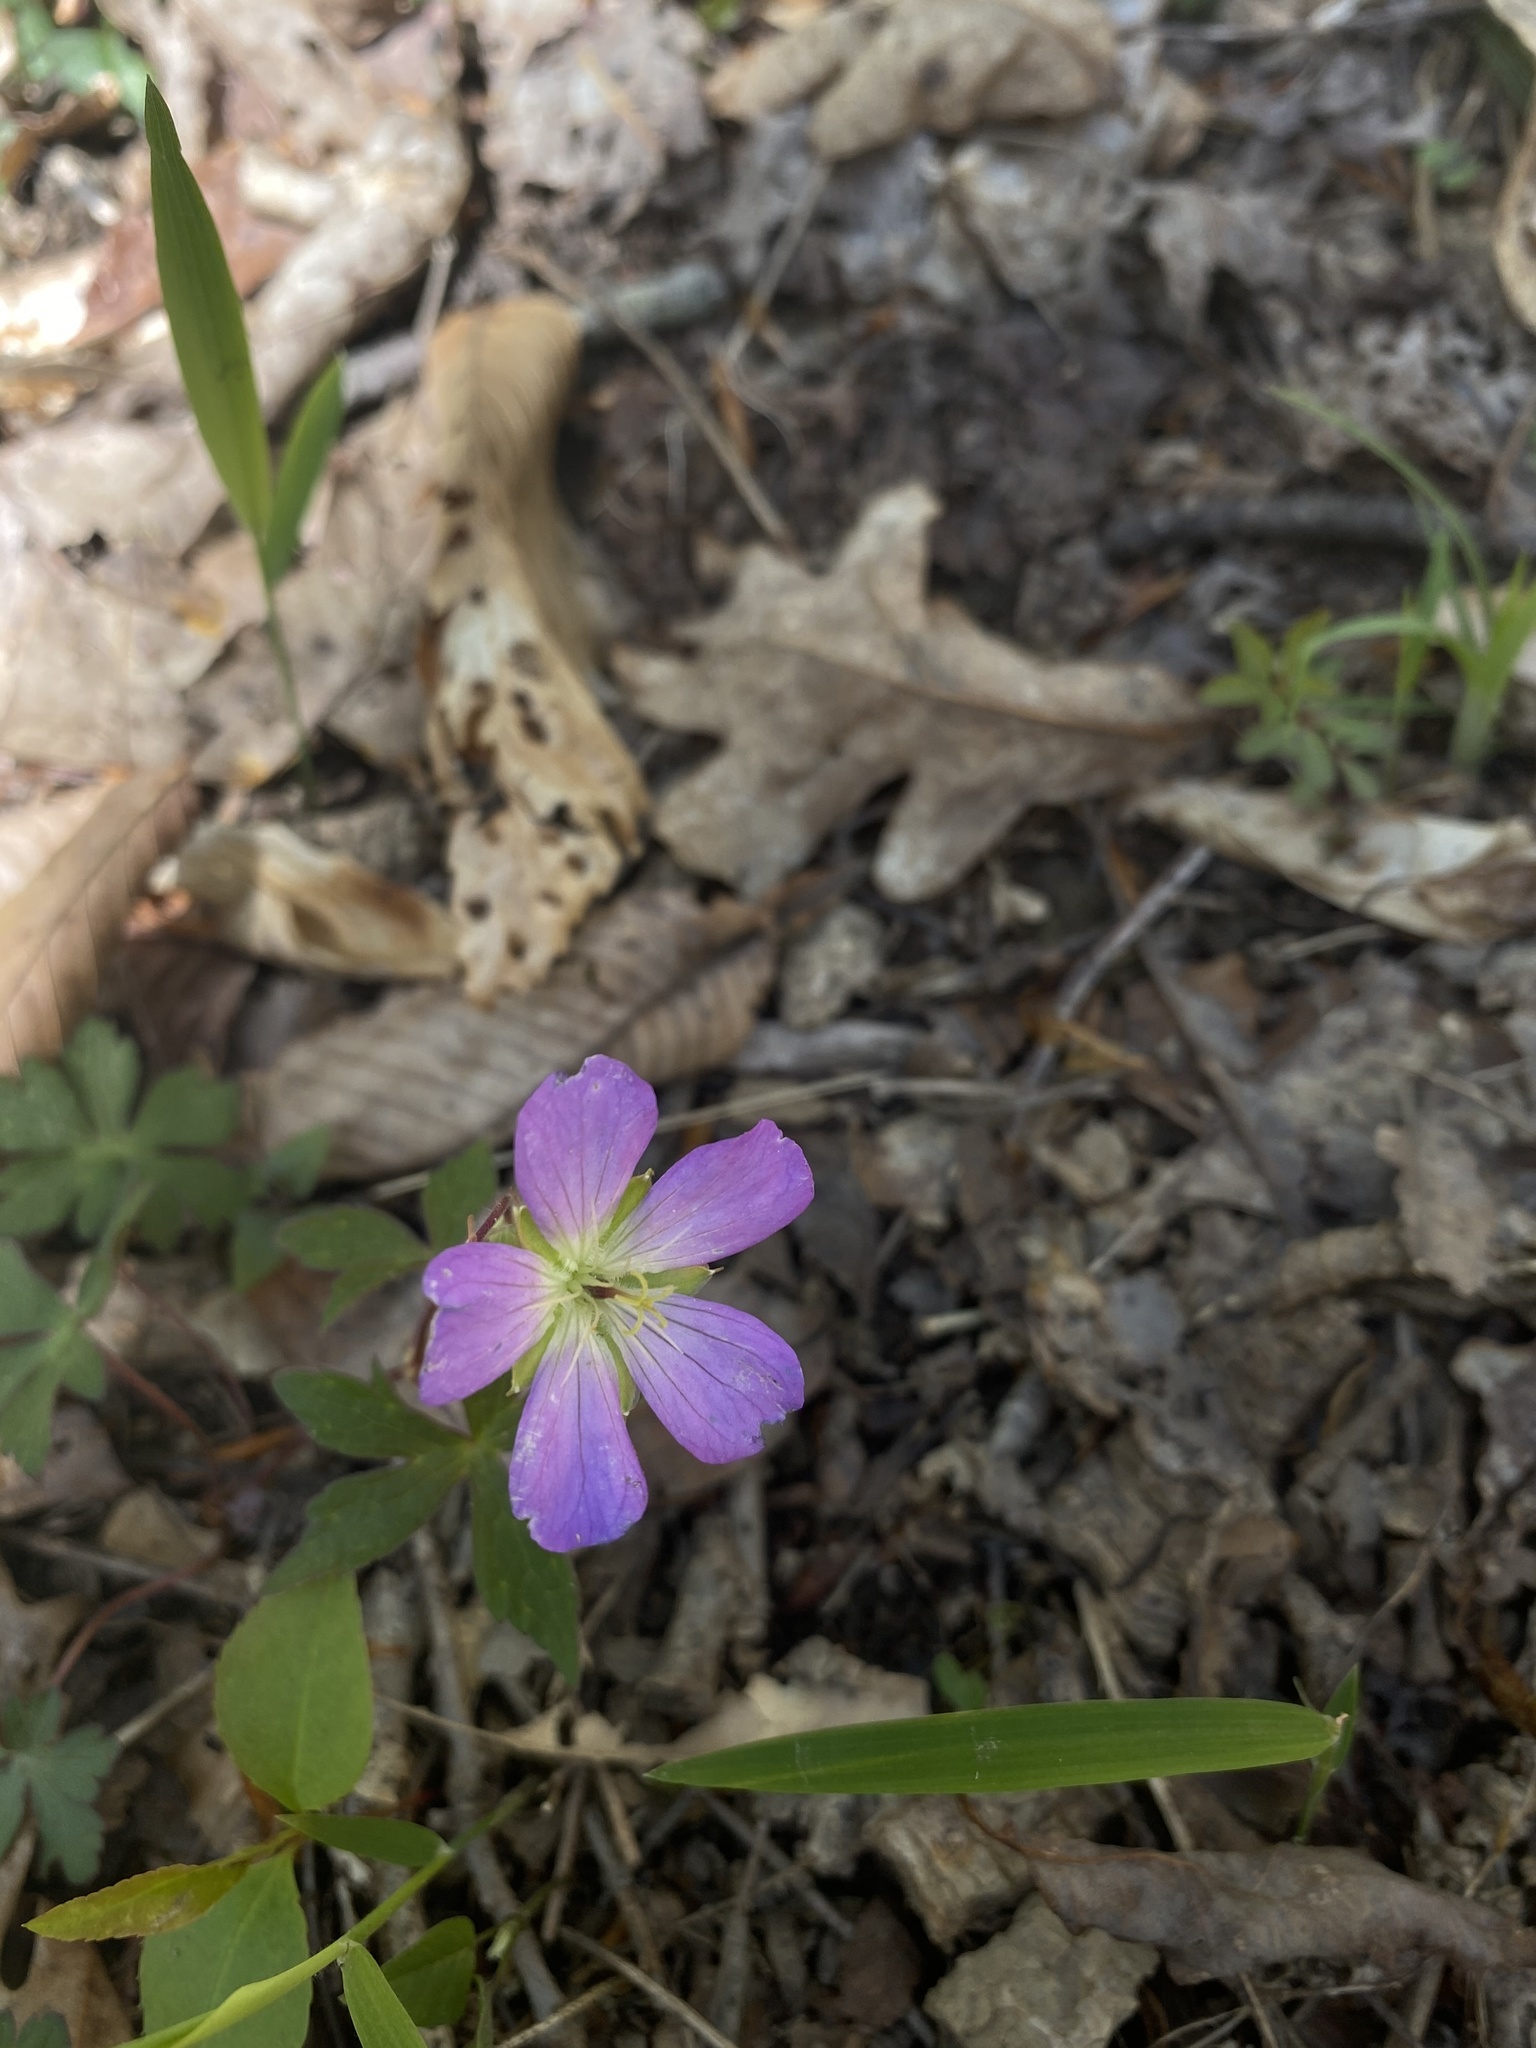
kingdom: Plantae
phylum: Tracheophyta
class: Magnoliopsida
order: Geraniales
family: Geraniaceae
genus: Geranium
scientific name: Geranium maculatum
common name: Spotted geranium
